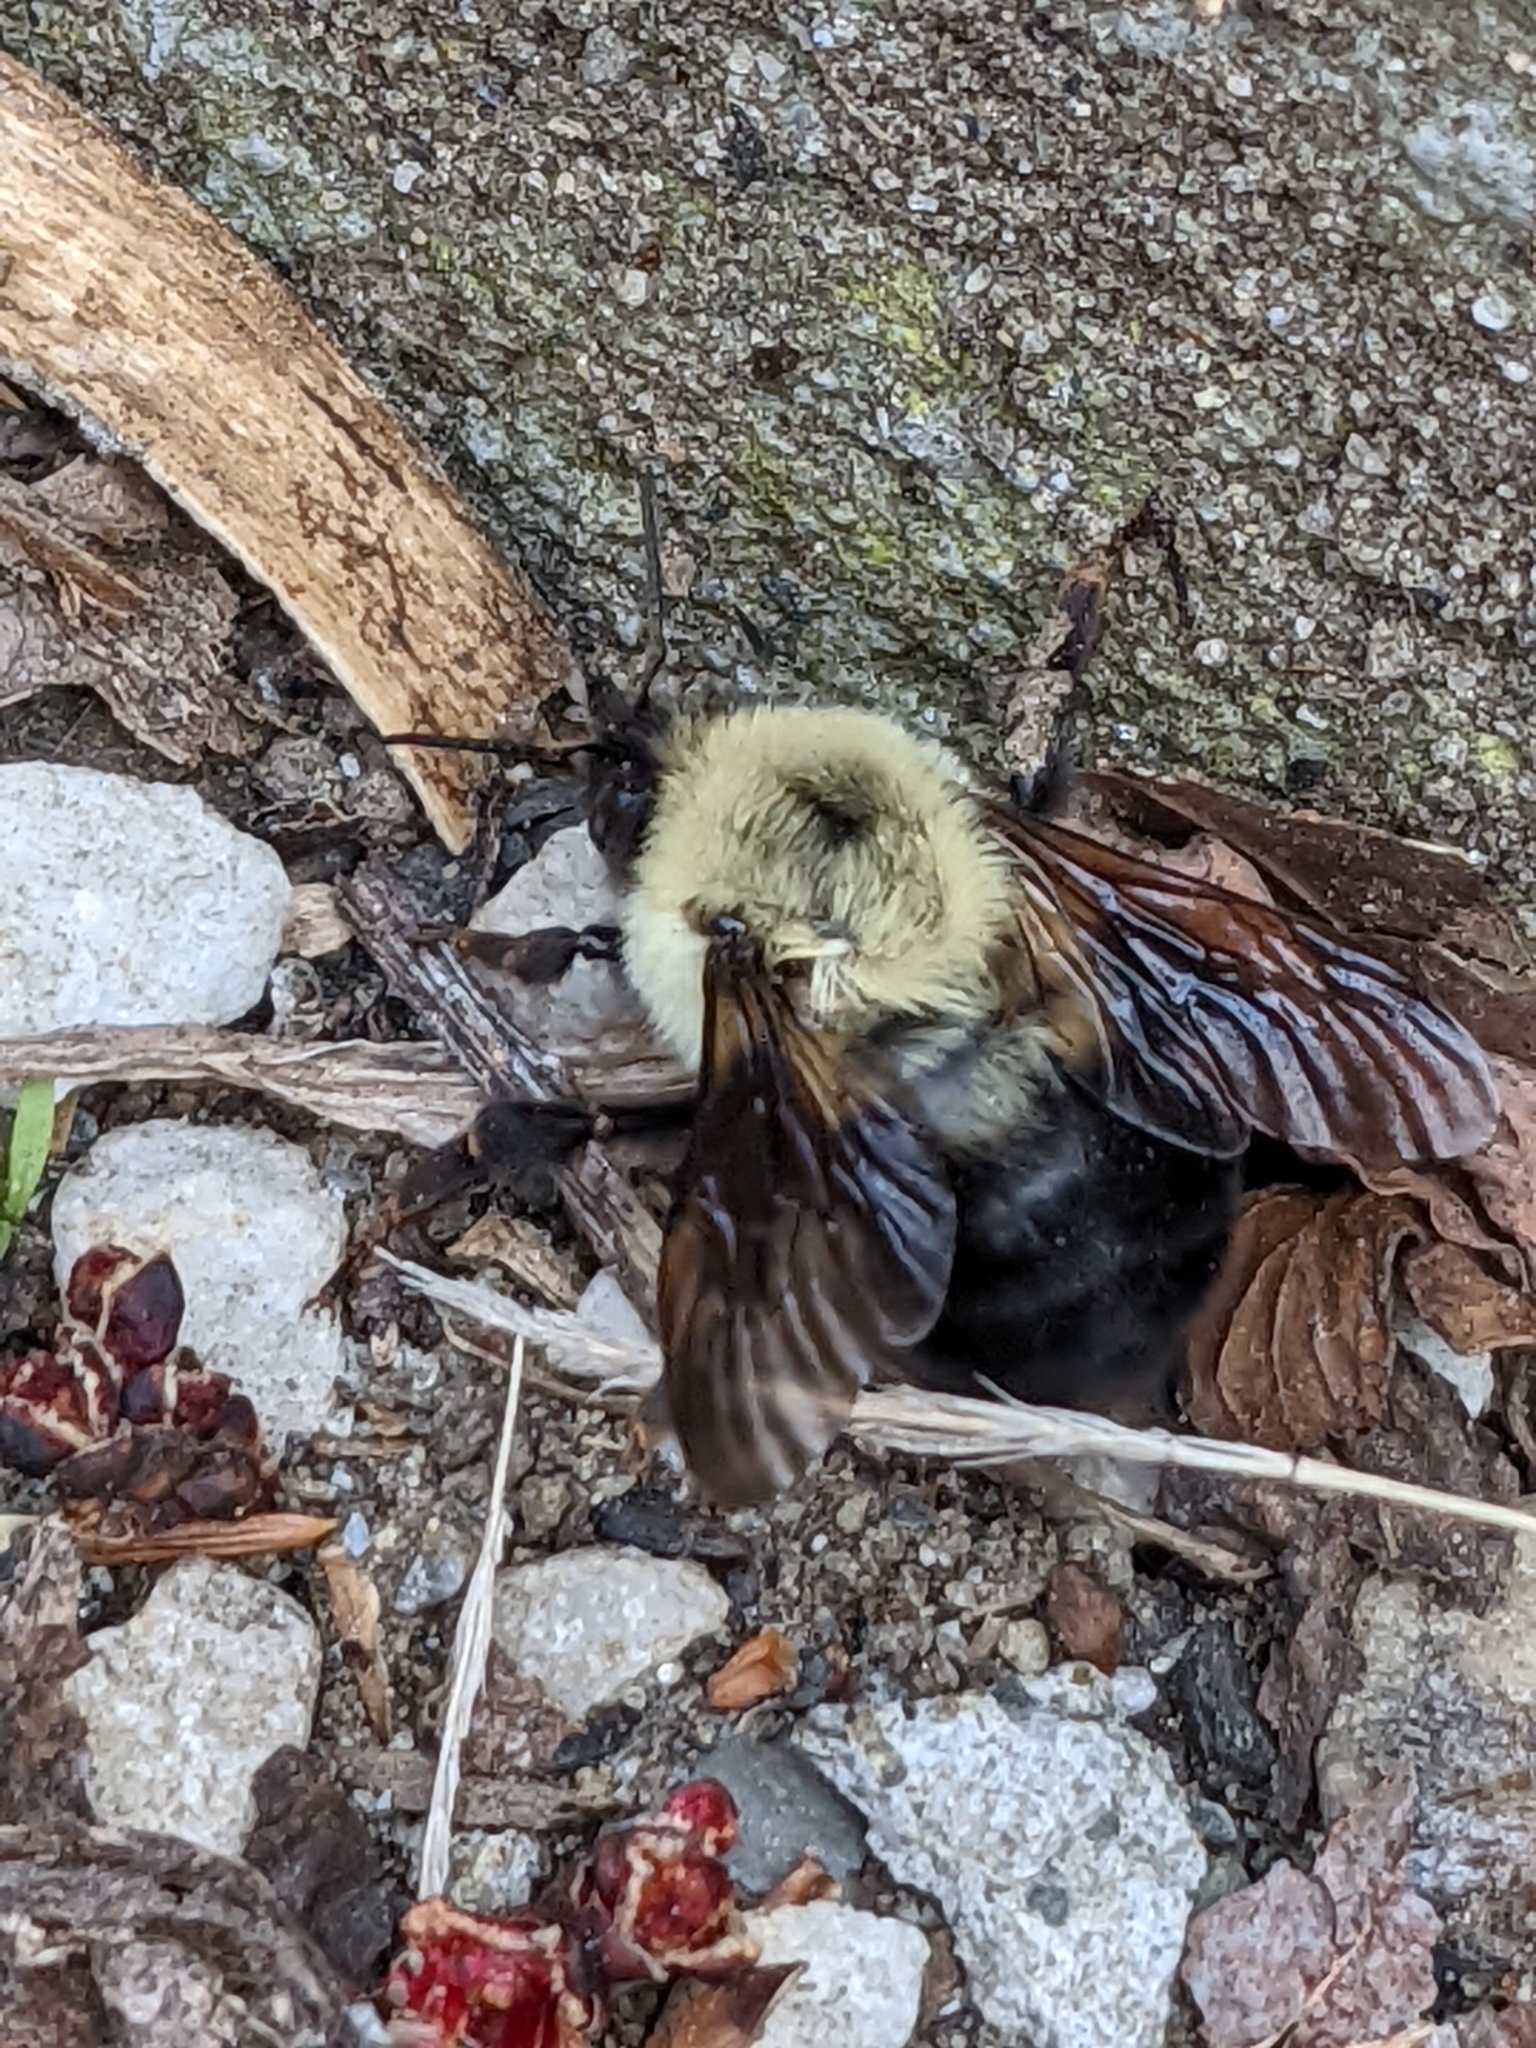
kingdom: Animalia
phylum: Arthropoda
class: Insecta
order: Hymenoptera
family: Apidae
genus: Bombus
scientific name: Bombus bimaculatus
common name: Two-spotted bumble bee
